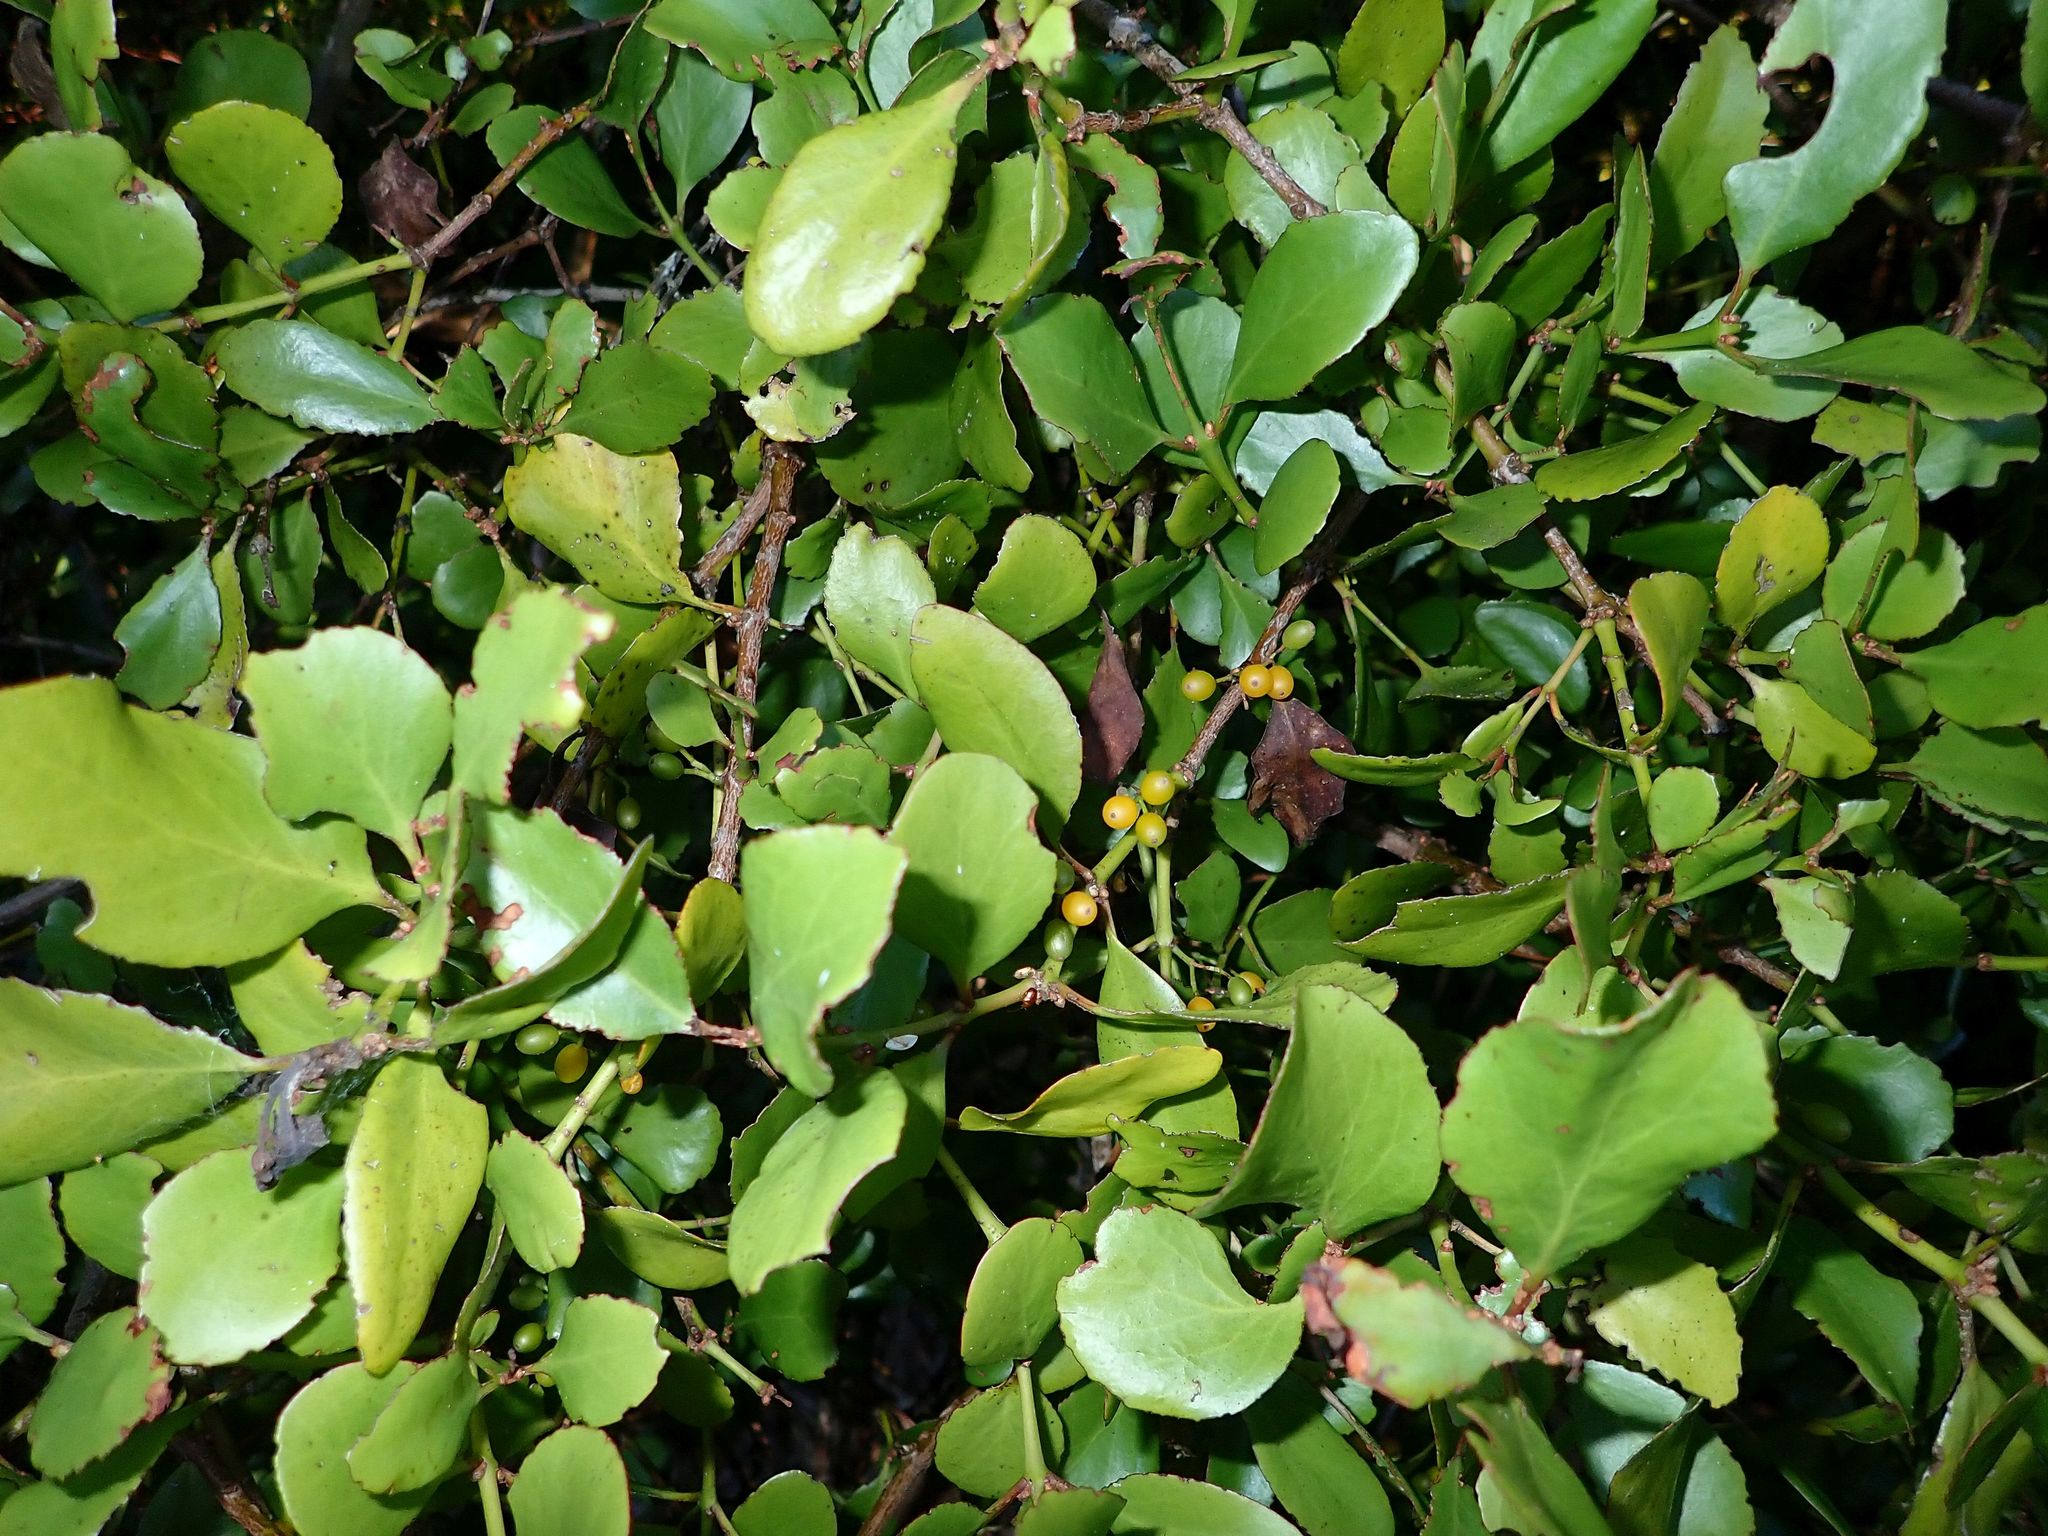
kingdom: Plantae
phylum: Tracheophyta
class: Magnoliopsida
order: Santalales
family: Loranthaceae
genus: Ileostylus
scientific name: Ileostylus micranthus
